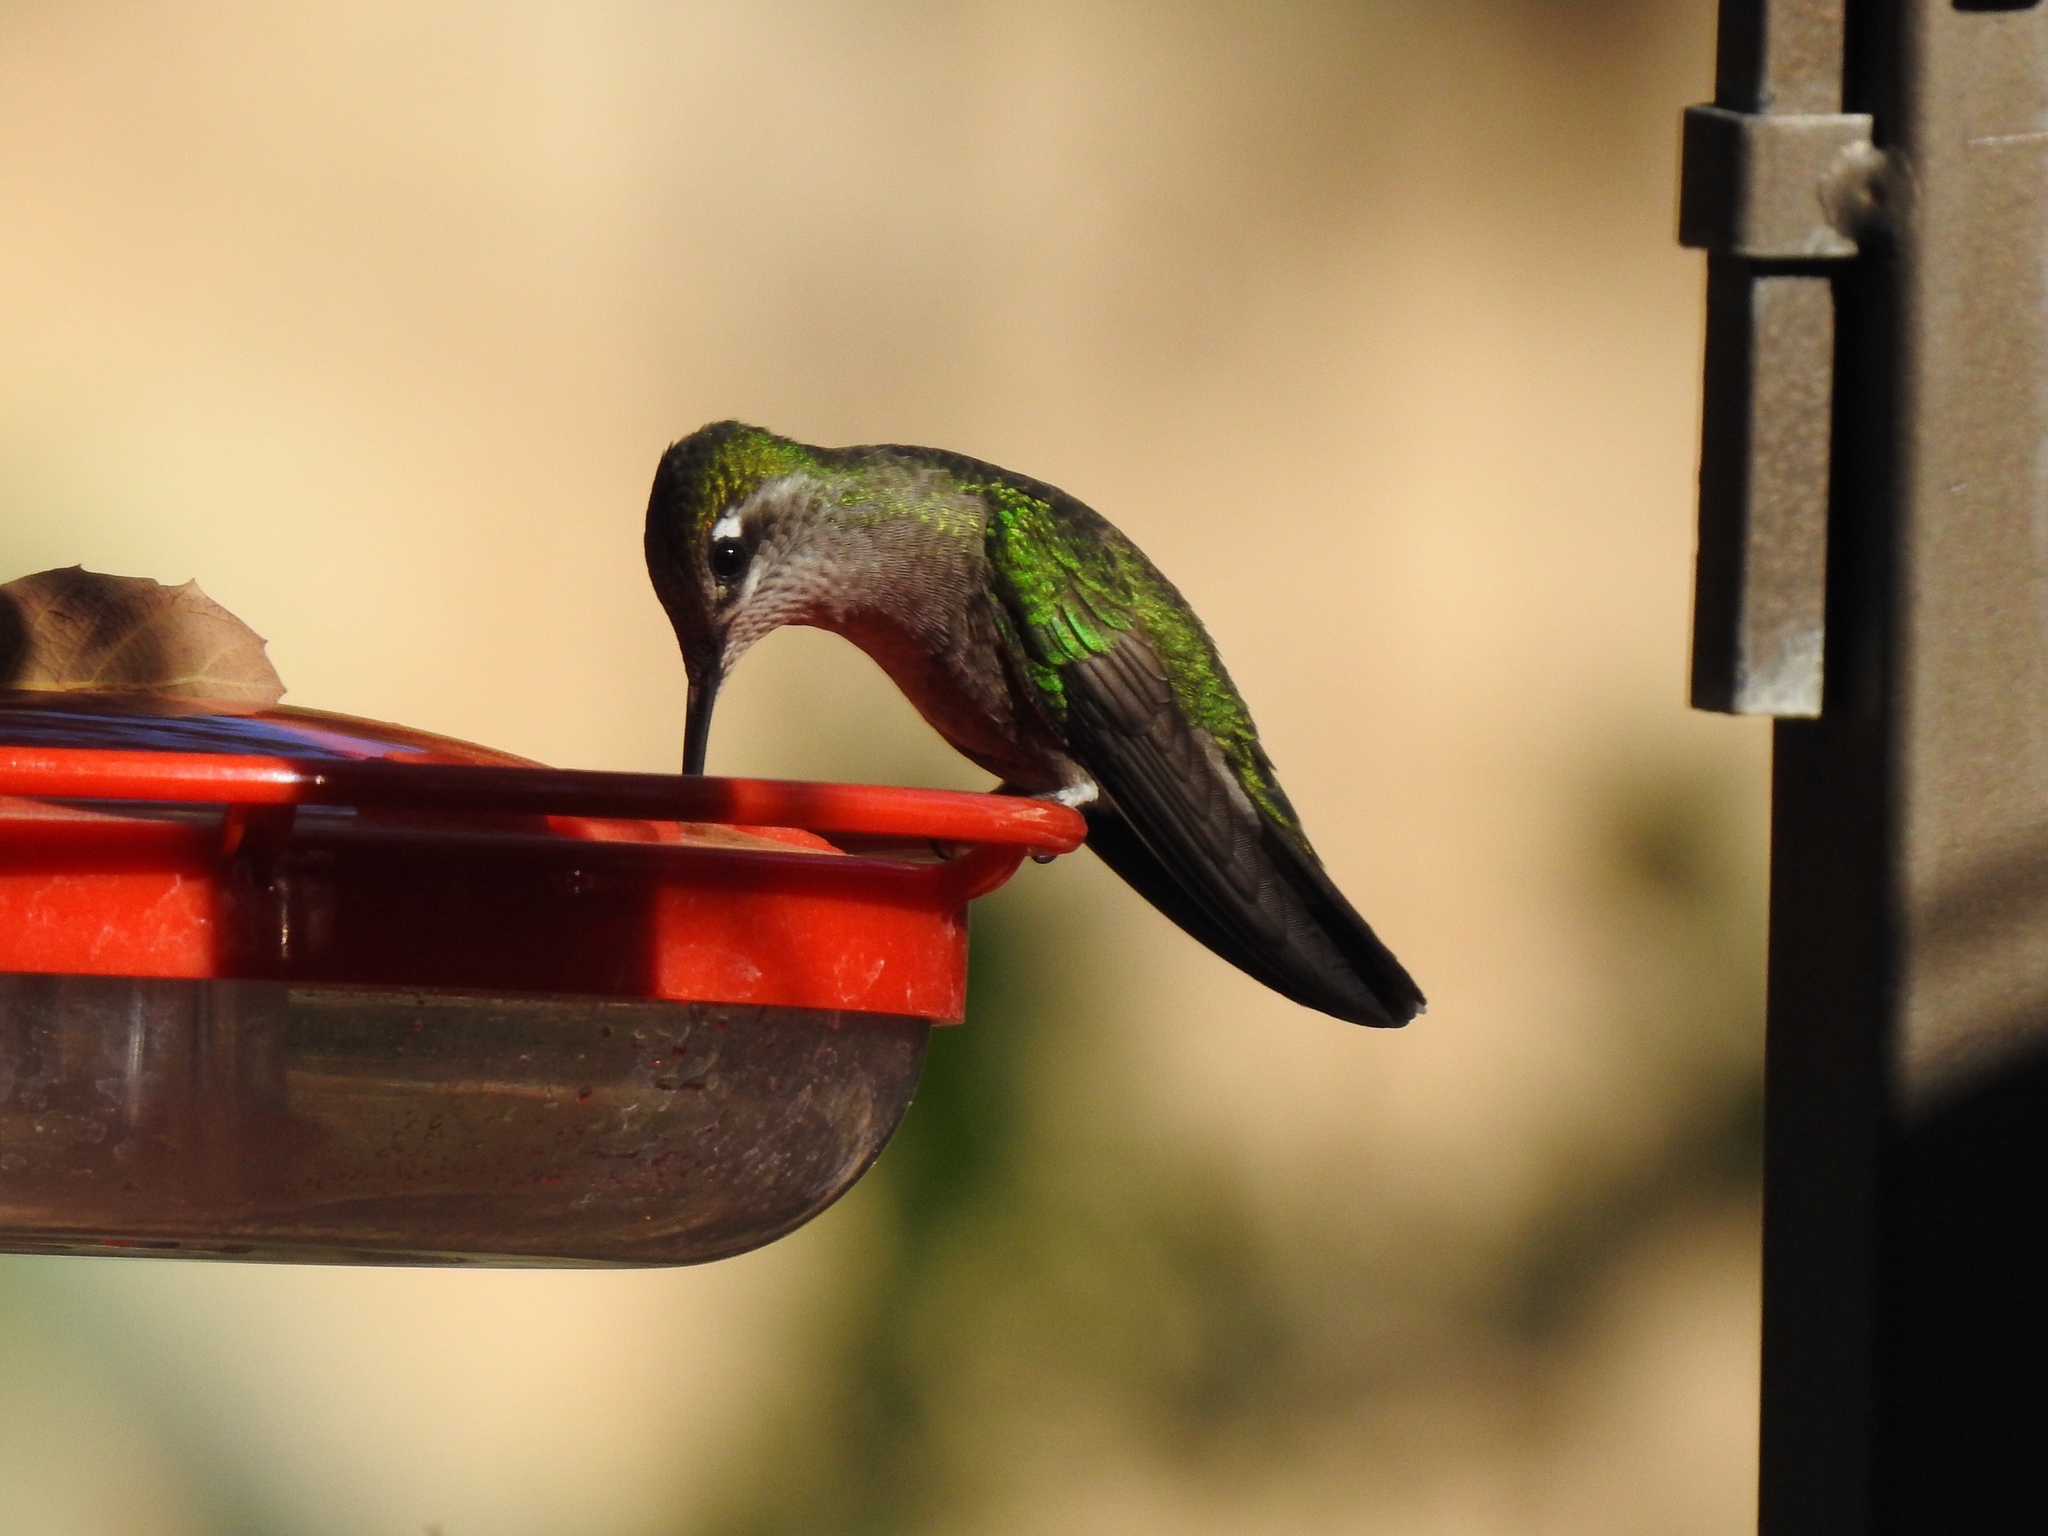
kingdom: Animalia
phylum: Chordata
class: Aves
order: Apodiformes
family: Trochilidae
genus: Eugenes
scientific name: Eugenes fulgens
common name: Magnificent hummingbird
